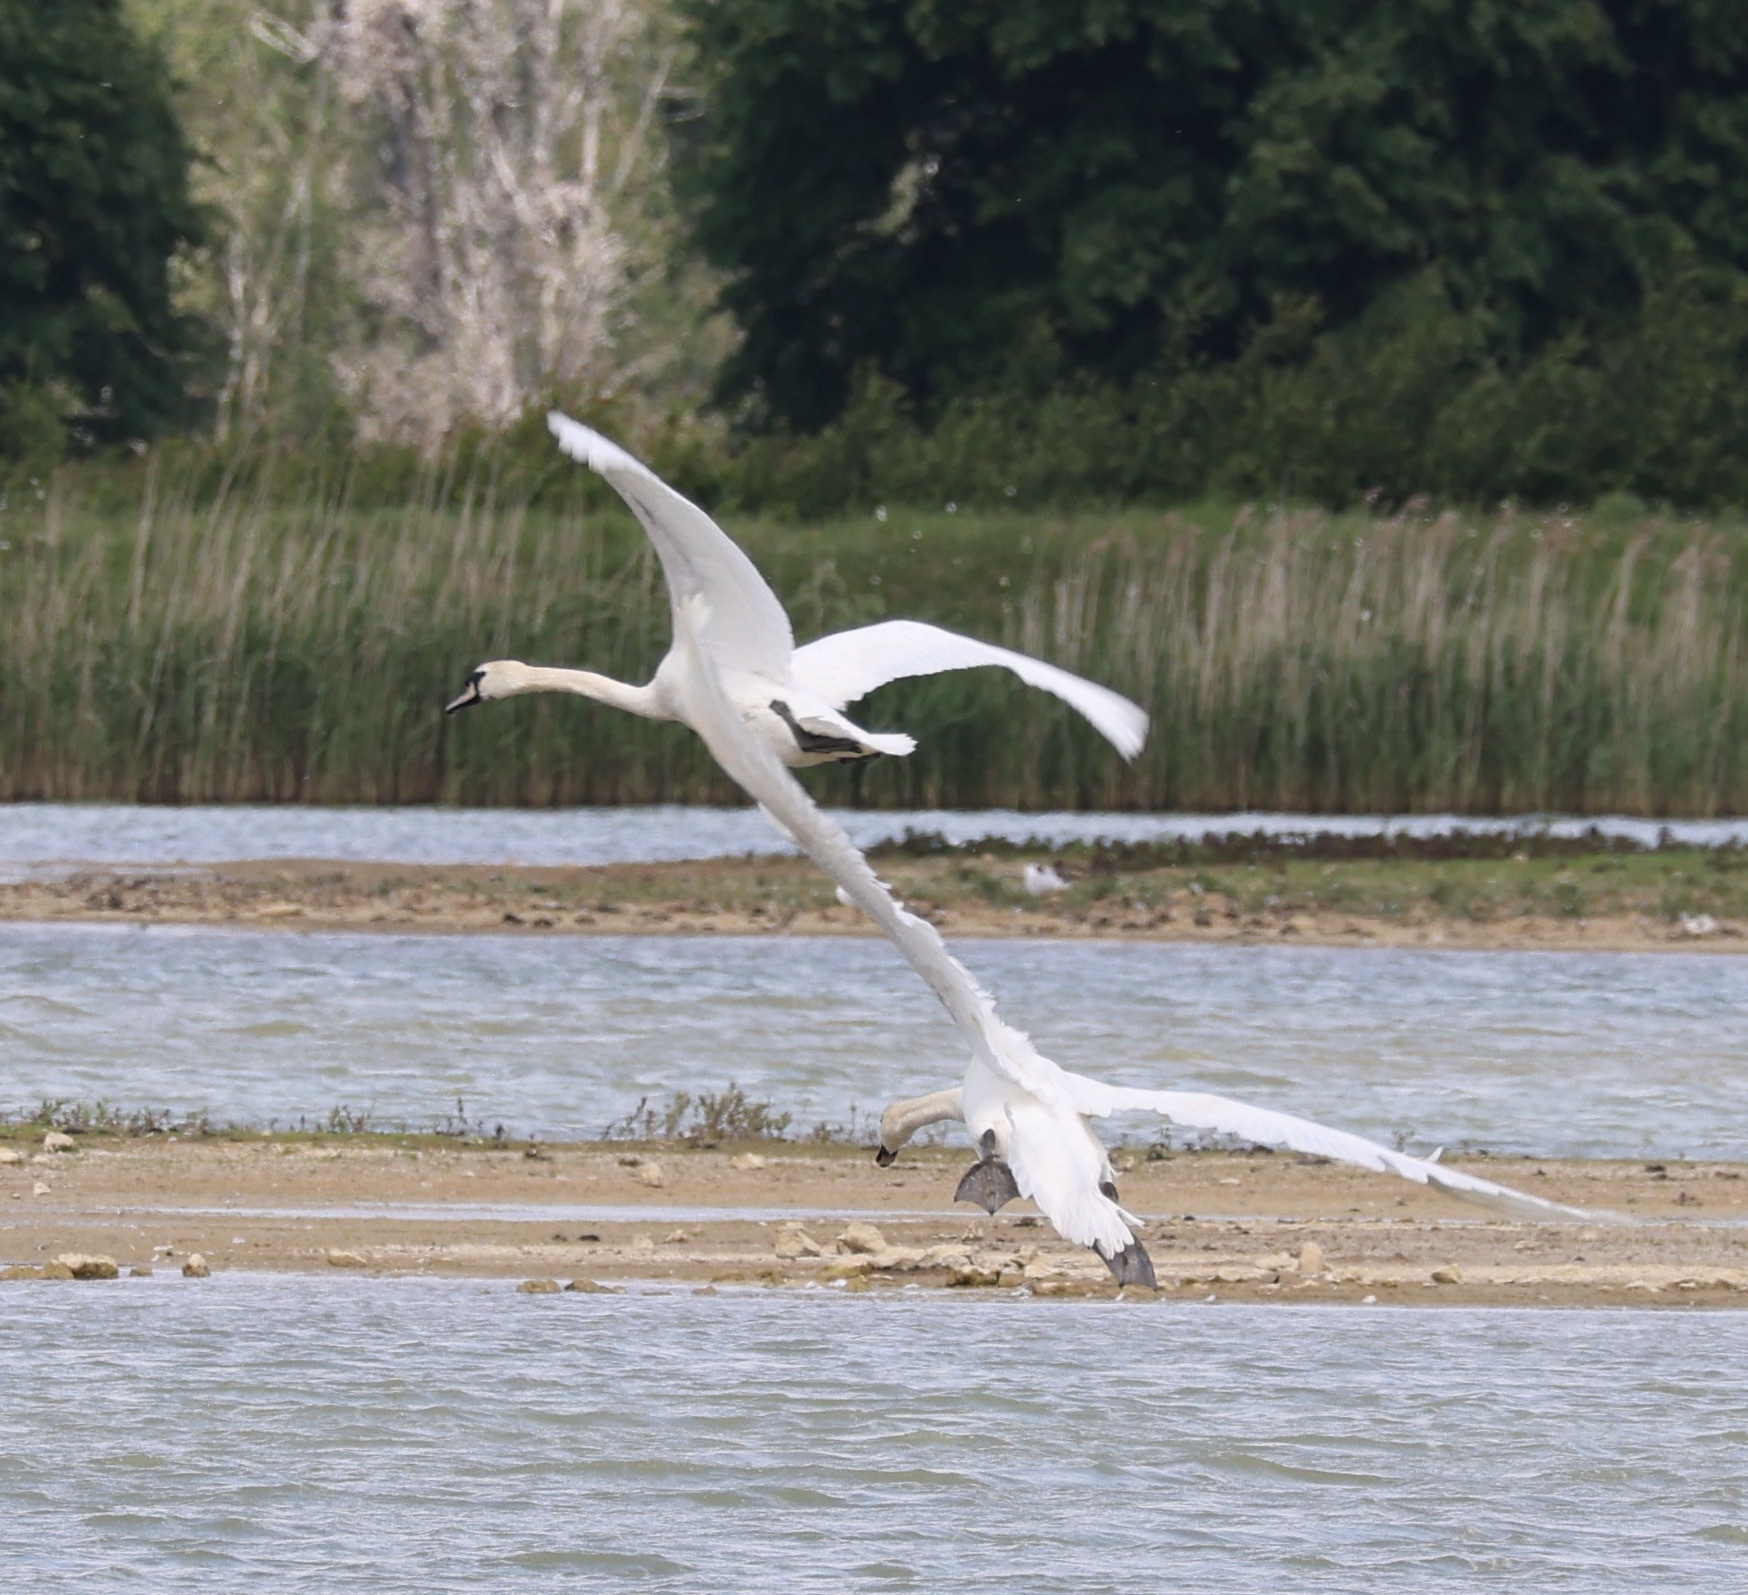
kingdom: Animalia
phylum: Chordata
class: Aves
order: Anseriformes
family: Anatidae
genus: Cygnus
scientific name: Cygnus olor
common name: Mute swan
